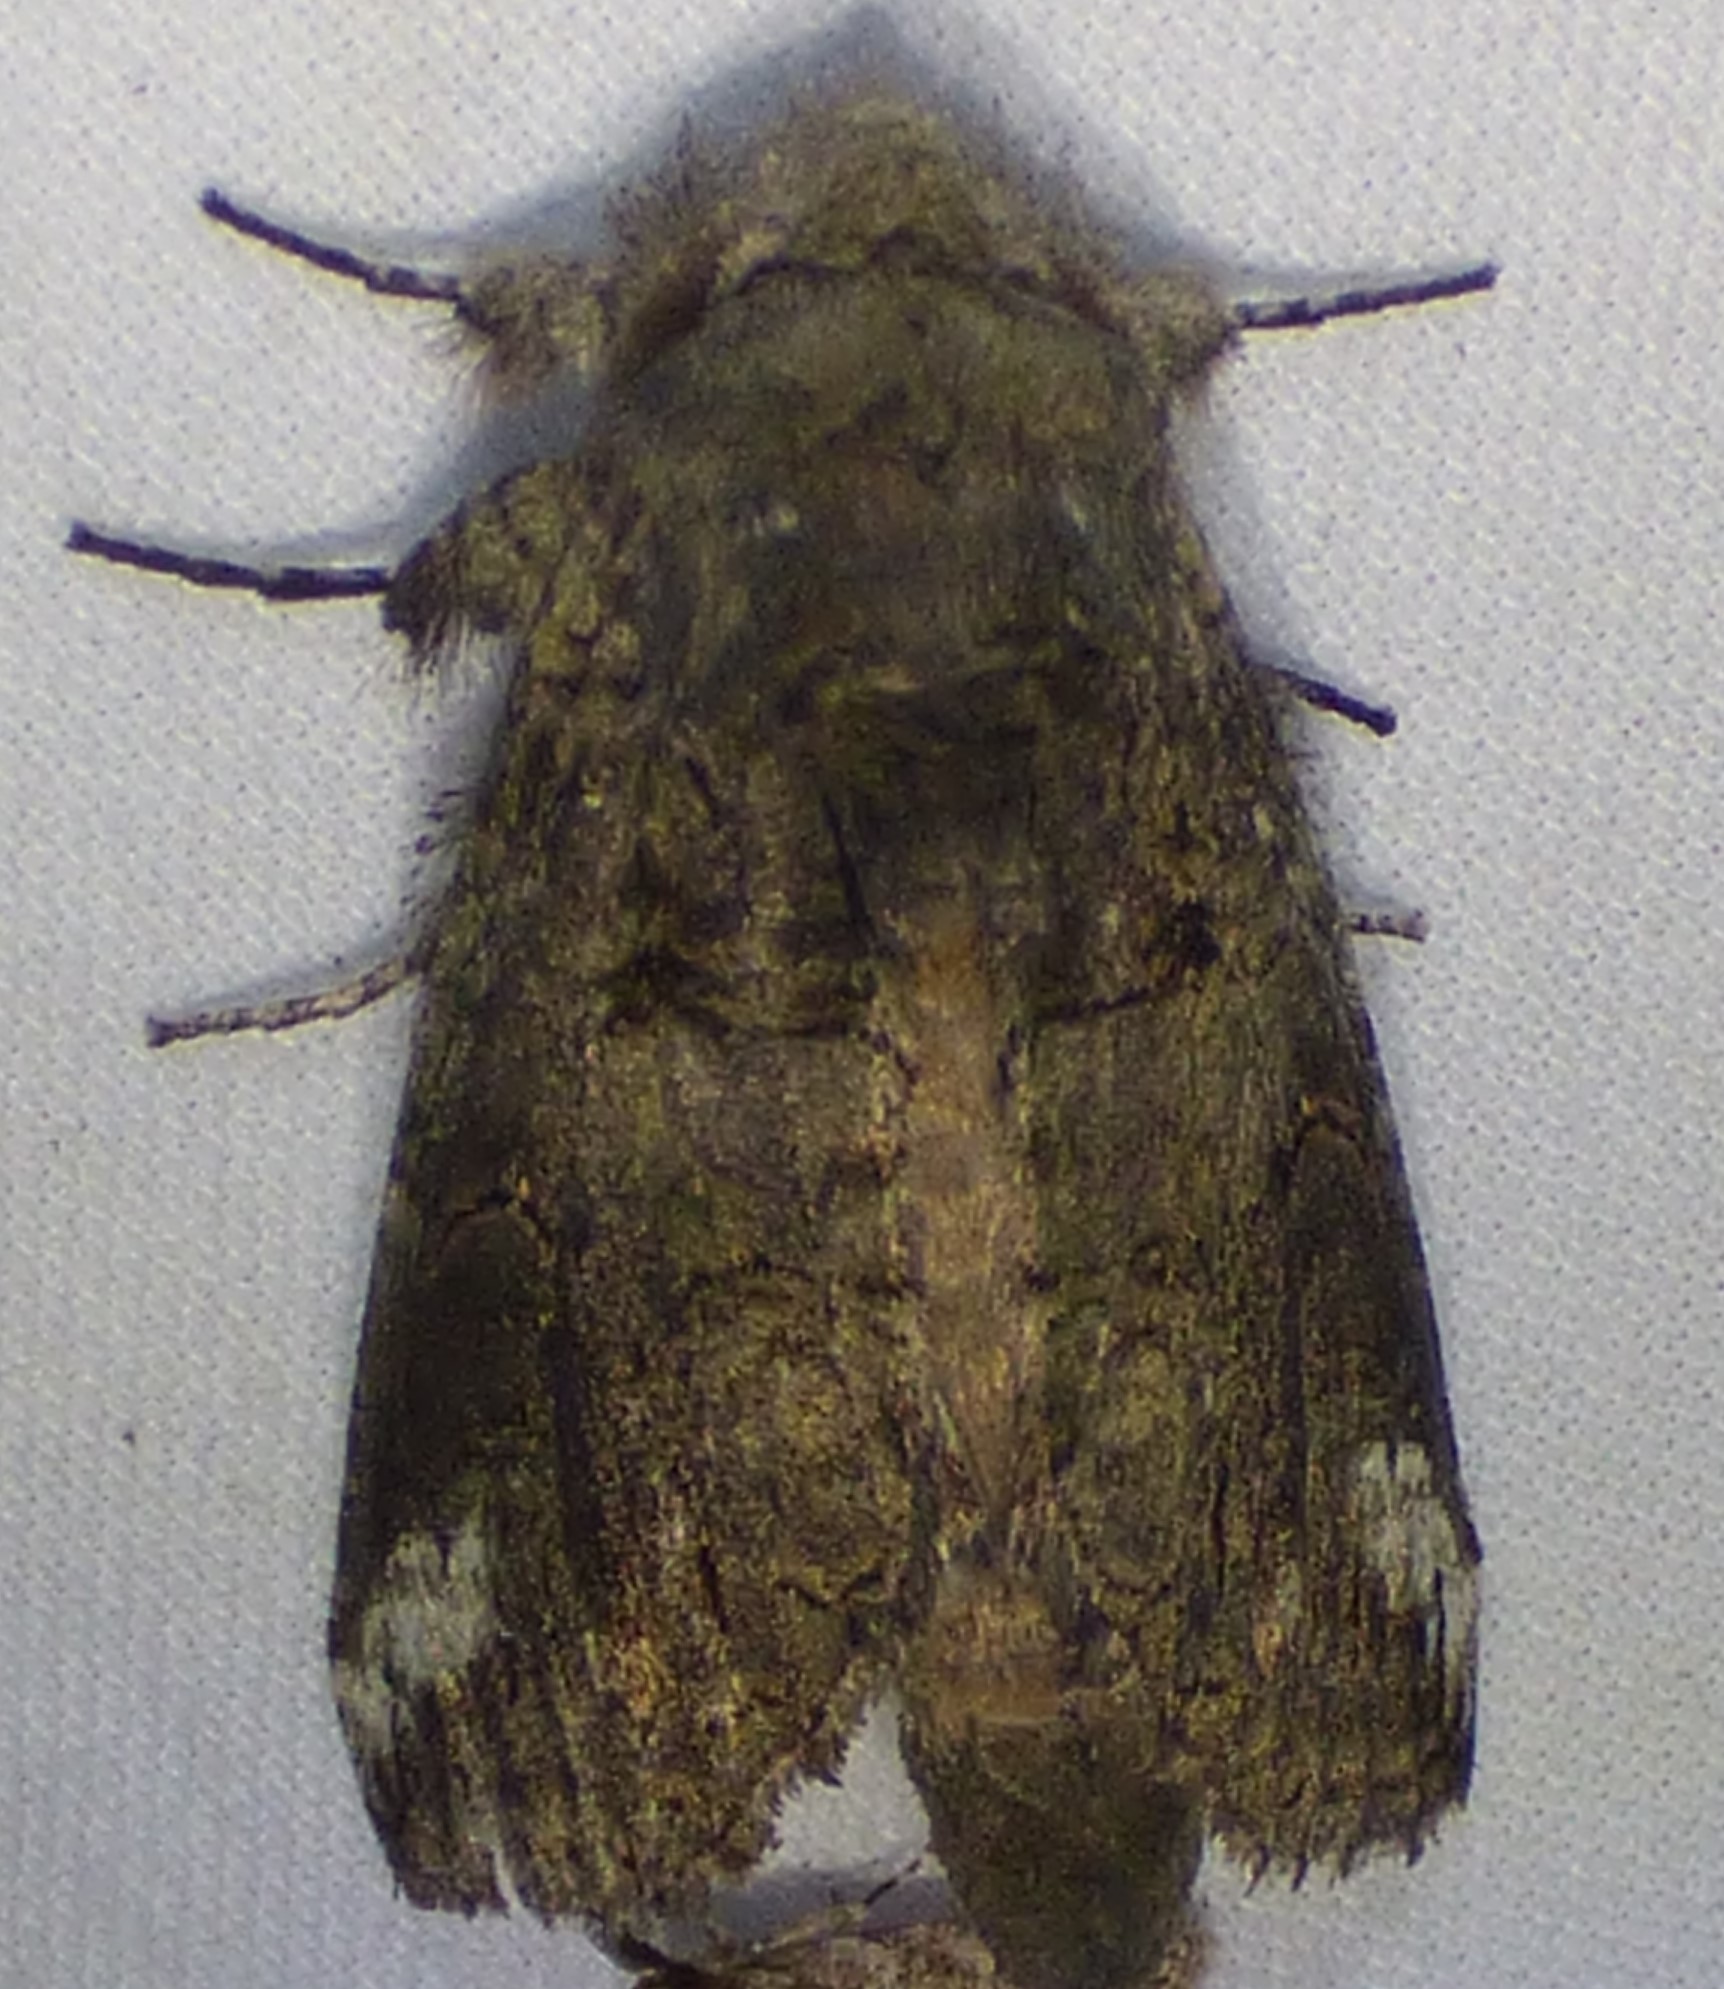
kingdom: Animalia
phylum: Arthropoda
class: Insecta
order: Lepidoptera
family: Notodontidae
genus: Heterocampa
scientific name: Heterocampa obliqua
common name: Oblique heterocampa
